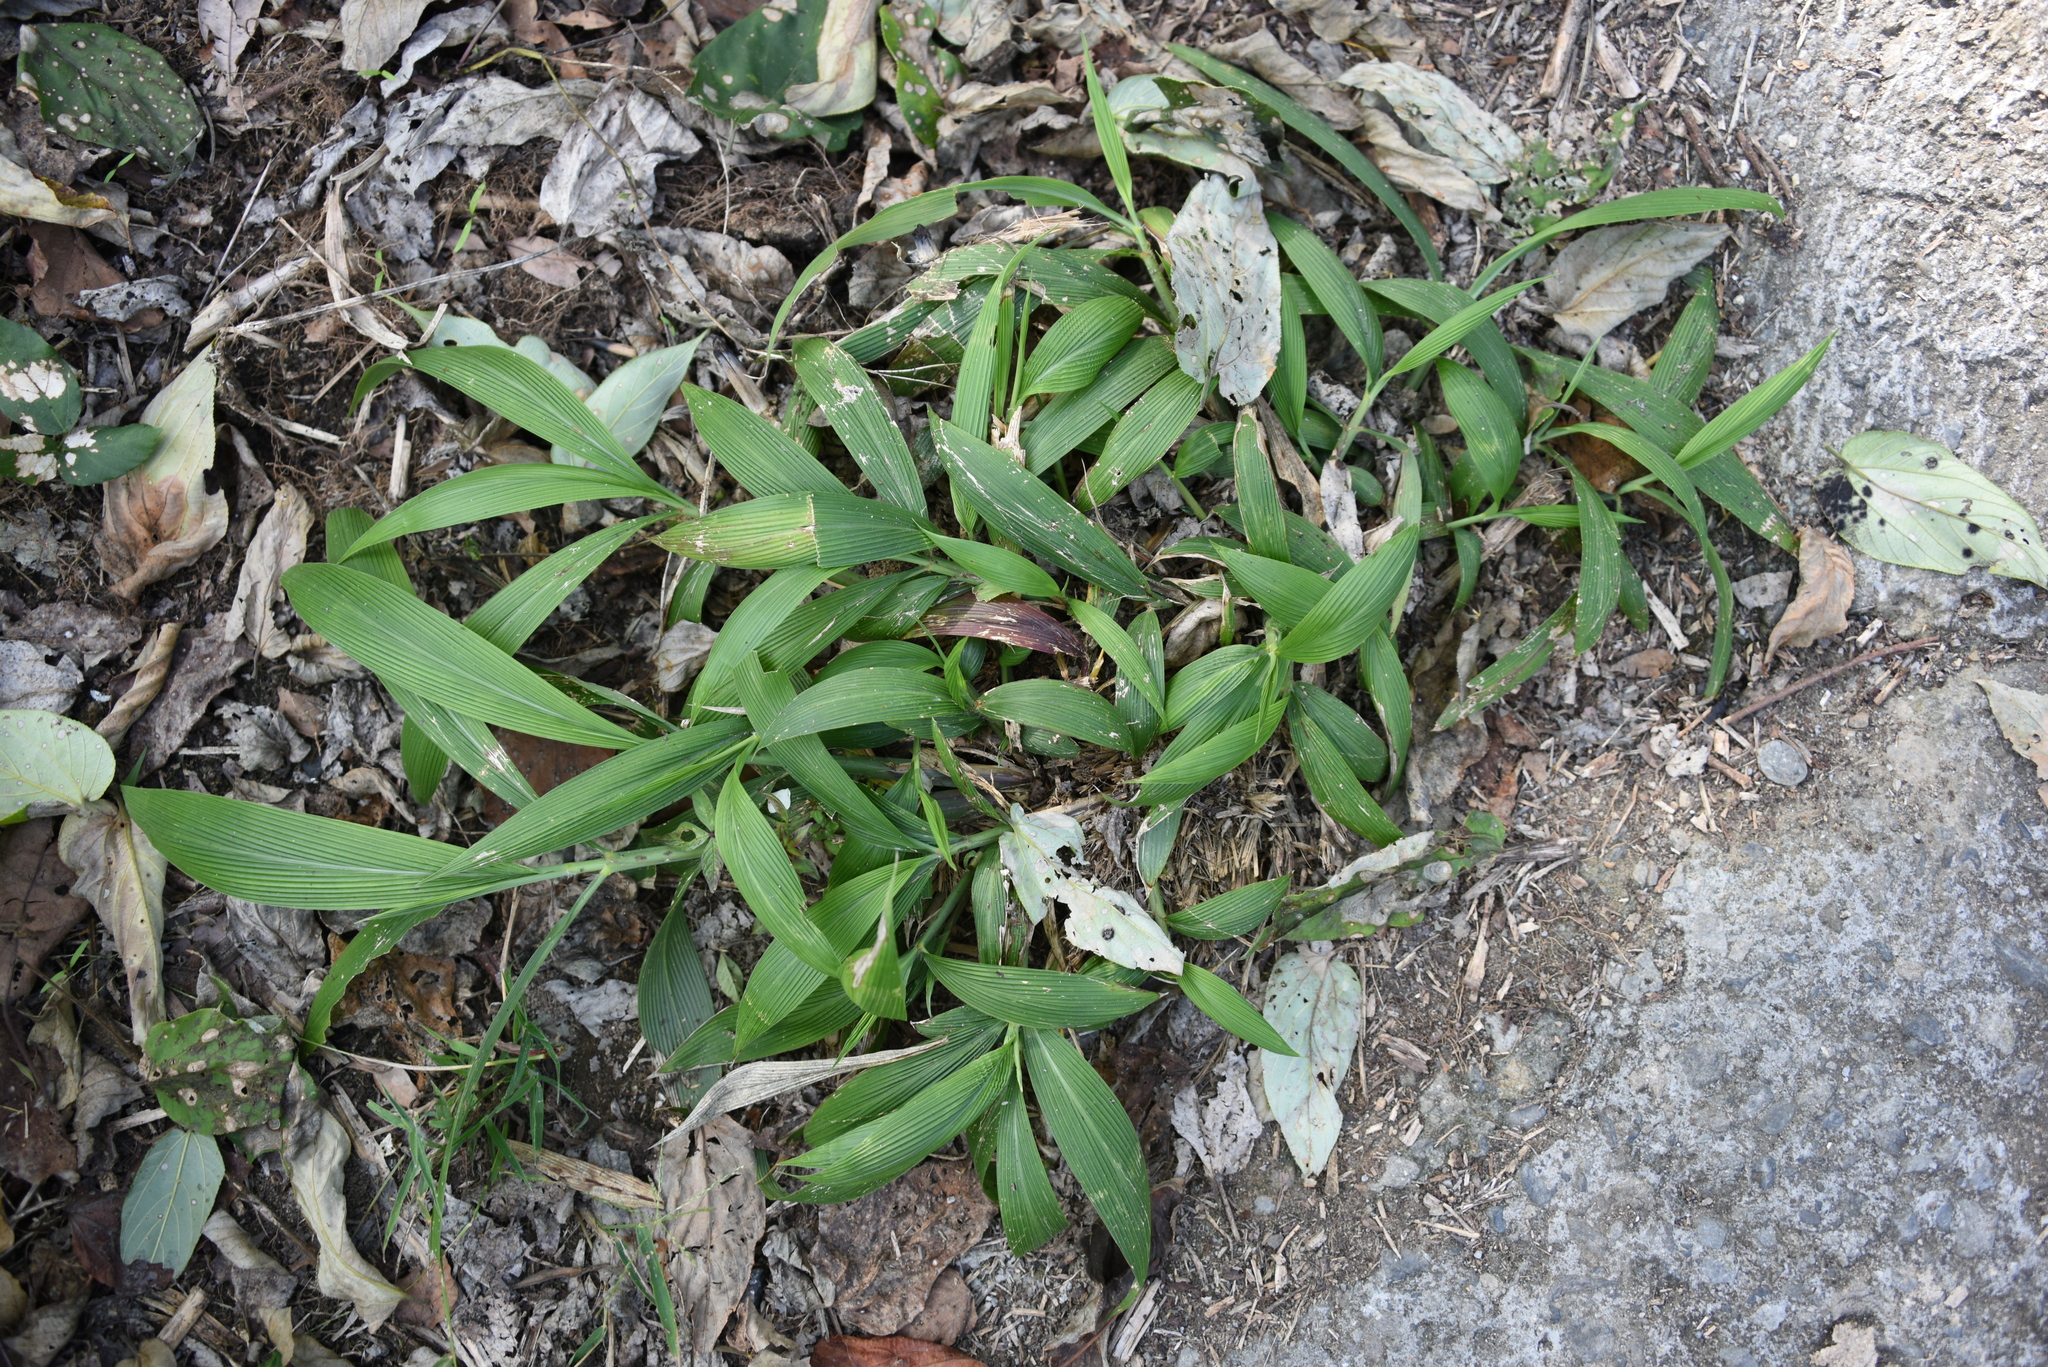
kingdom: Plantae
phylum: Tracheophyta
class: Liliopsida
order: Poales
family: Poaceae
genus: Setaria
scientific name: Setaria palmifolia
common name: Broadleaved bristlegrass
